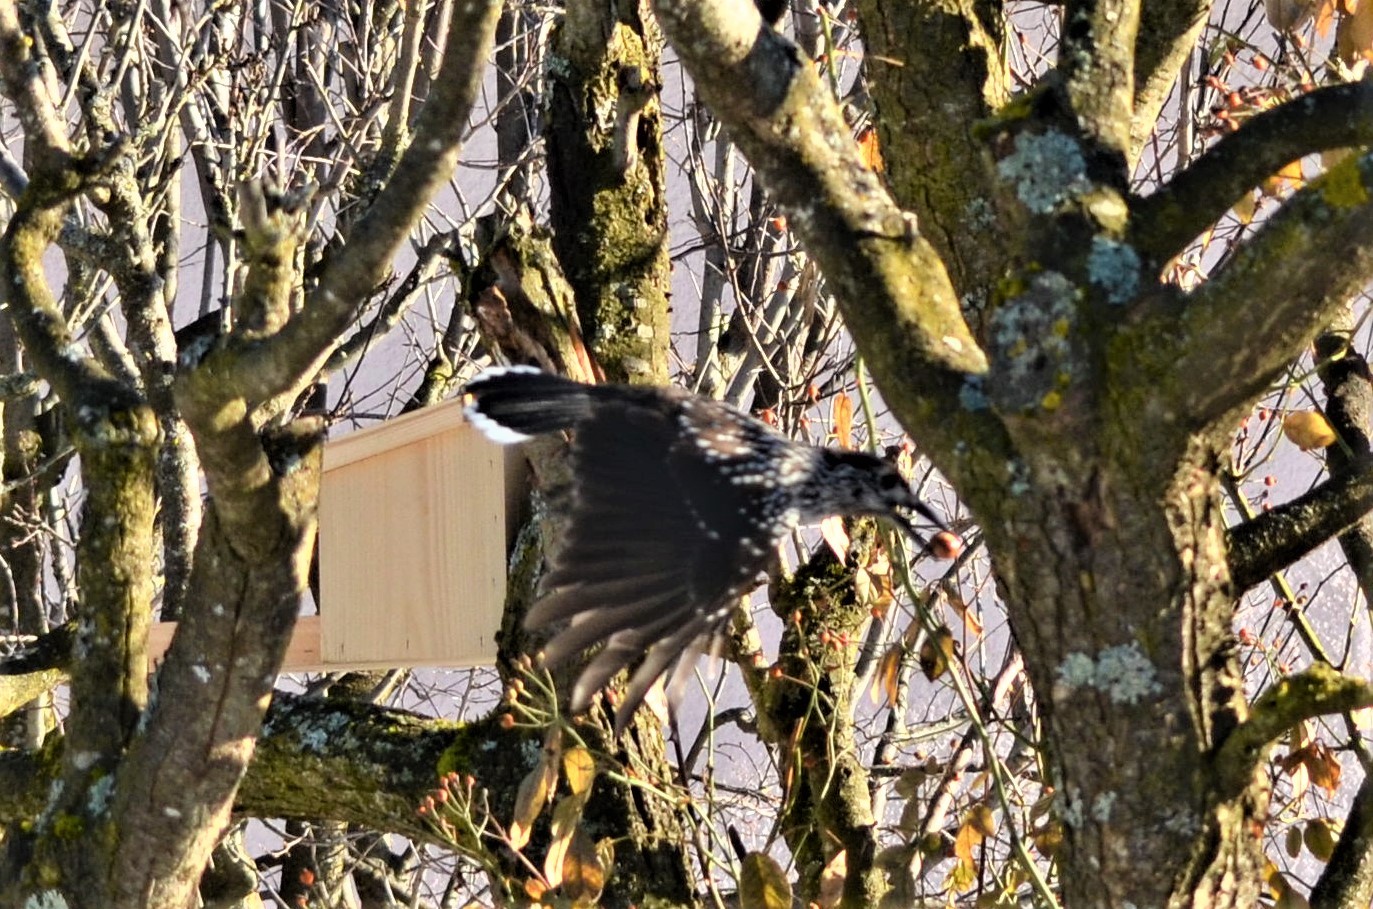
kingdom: Animalia
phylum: Chordata
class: Aves
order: Passeriformes
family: Corvidae
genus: Nucifraga
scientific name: Nucifraga caryocatactes
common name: Spotted nutcracker
